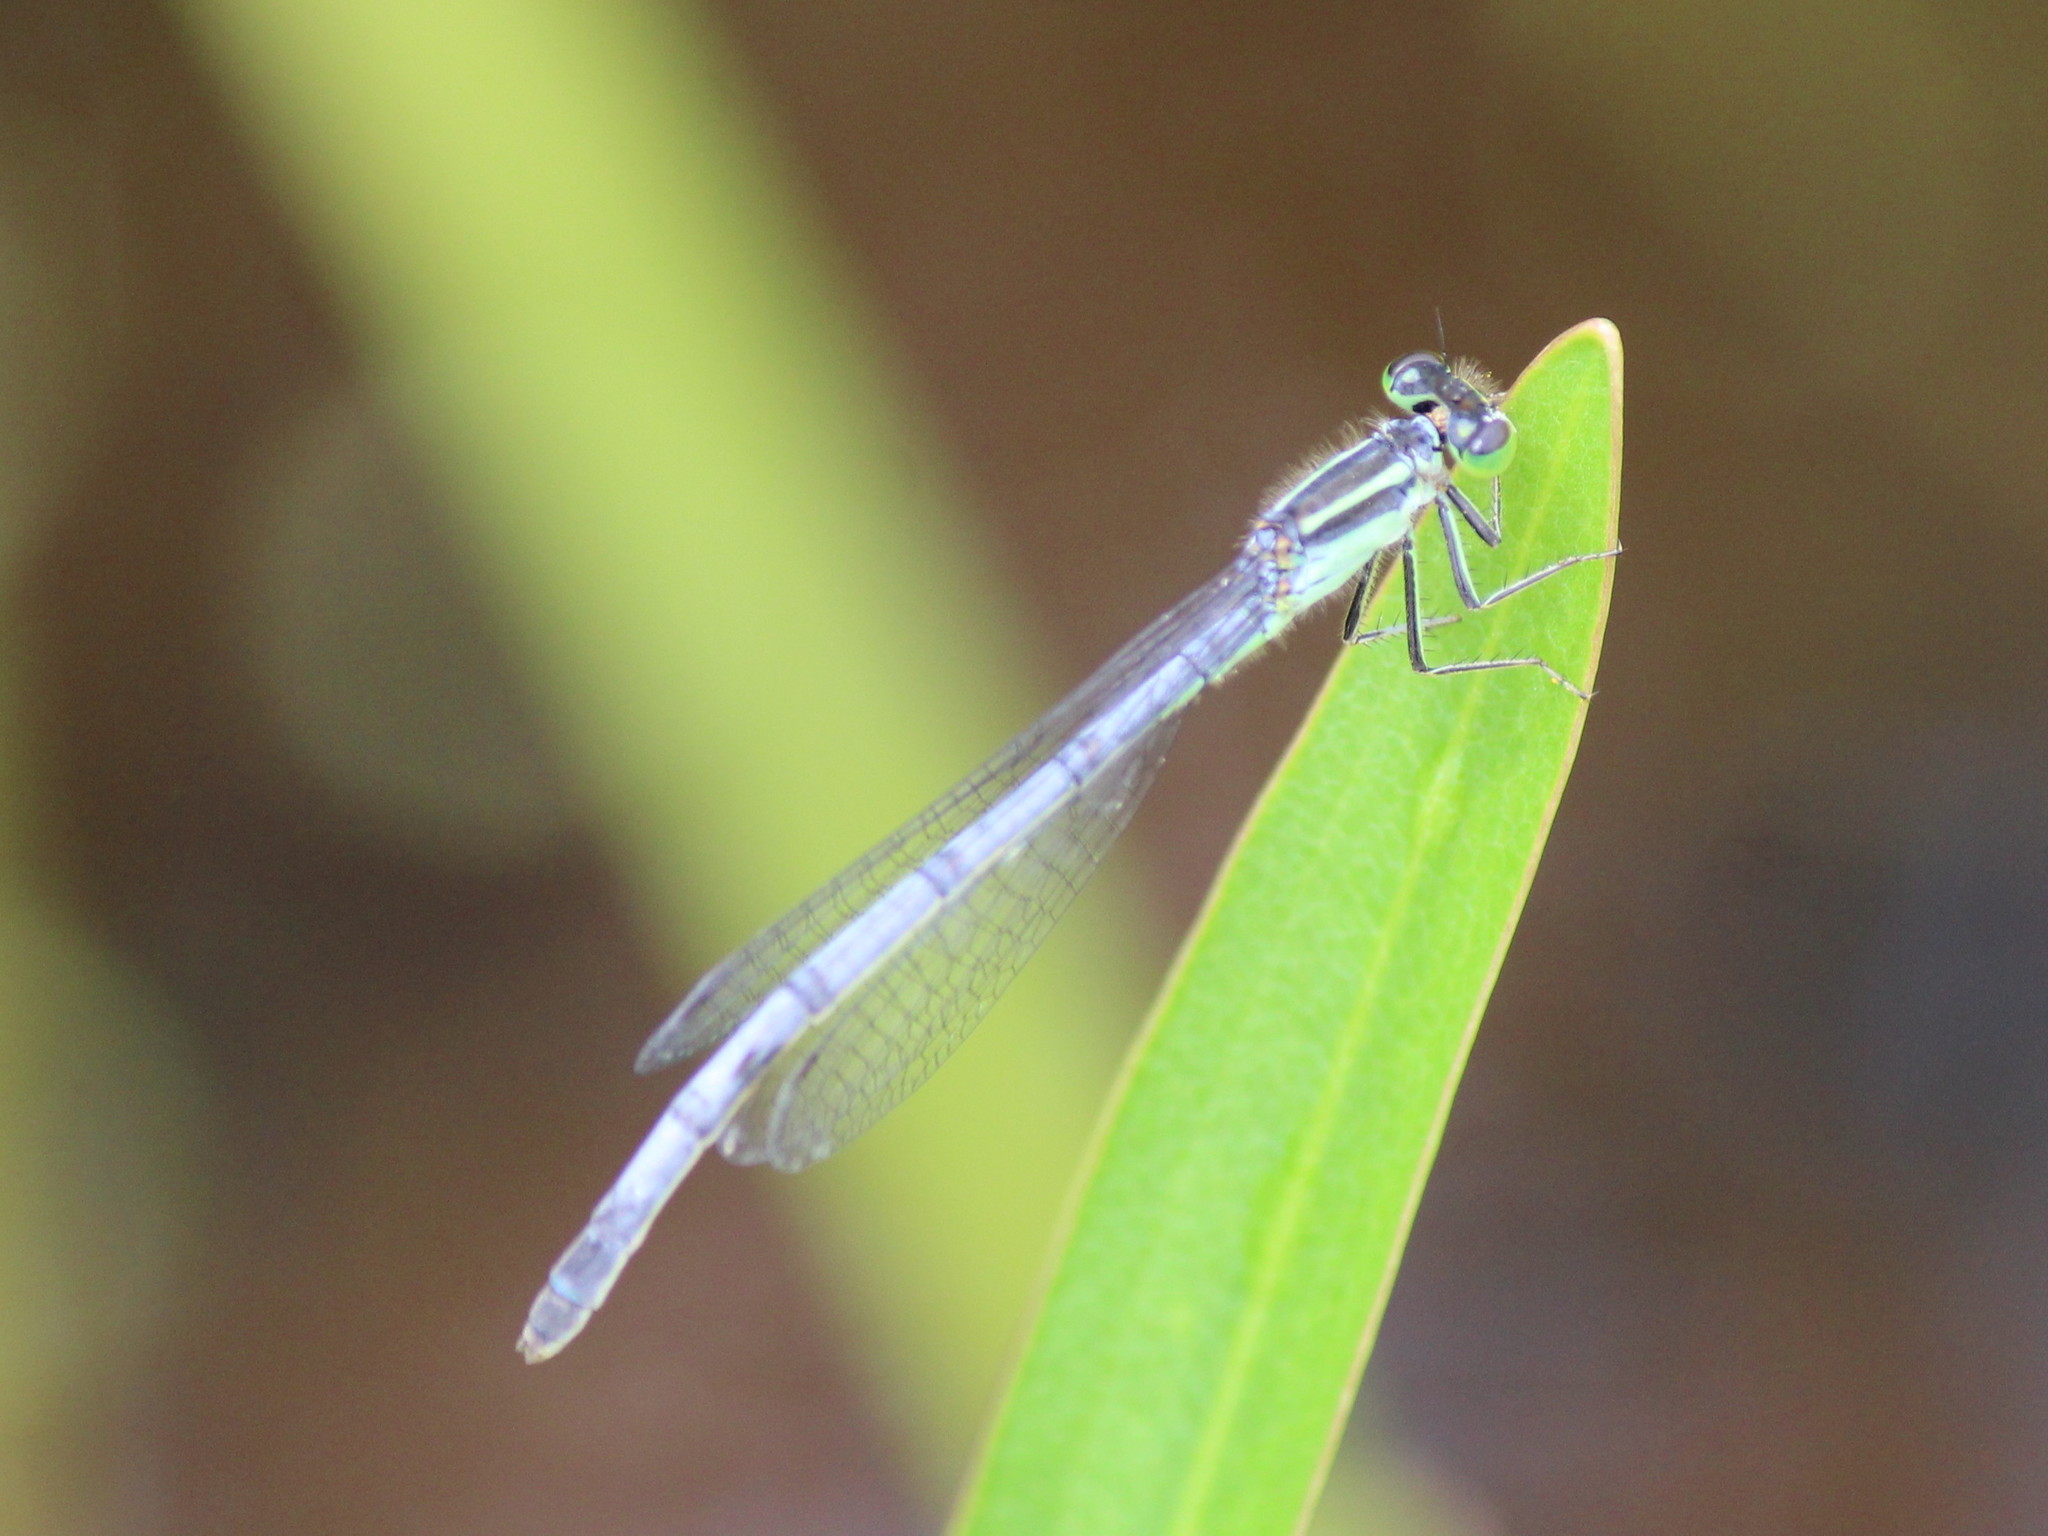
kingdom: Animalia
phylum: Arthropoda
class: Insecta
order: Odonata
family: Coenagrionidae
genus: Ischnura
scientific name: Ischnura verticalis
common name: Eastern forktail
